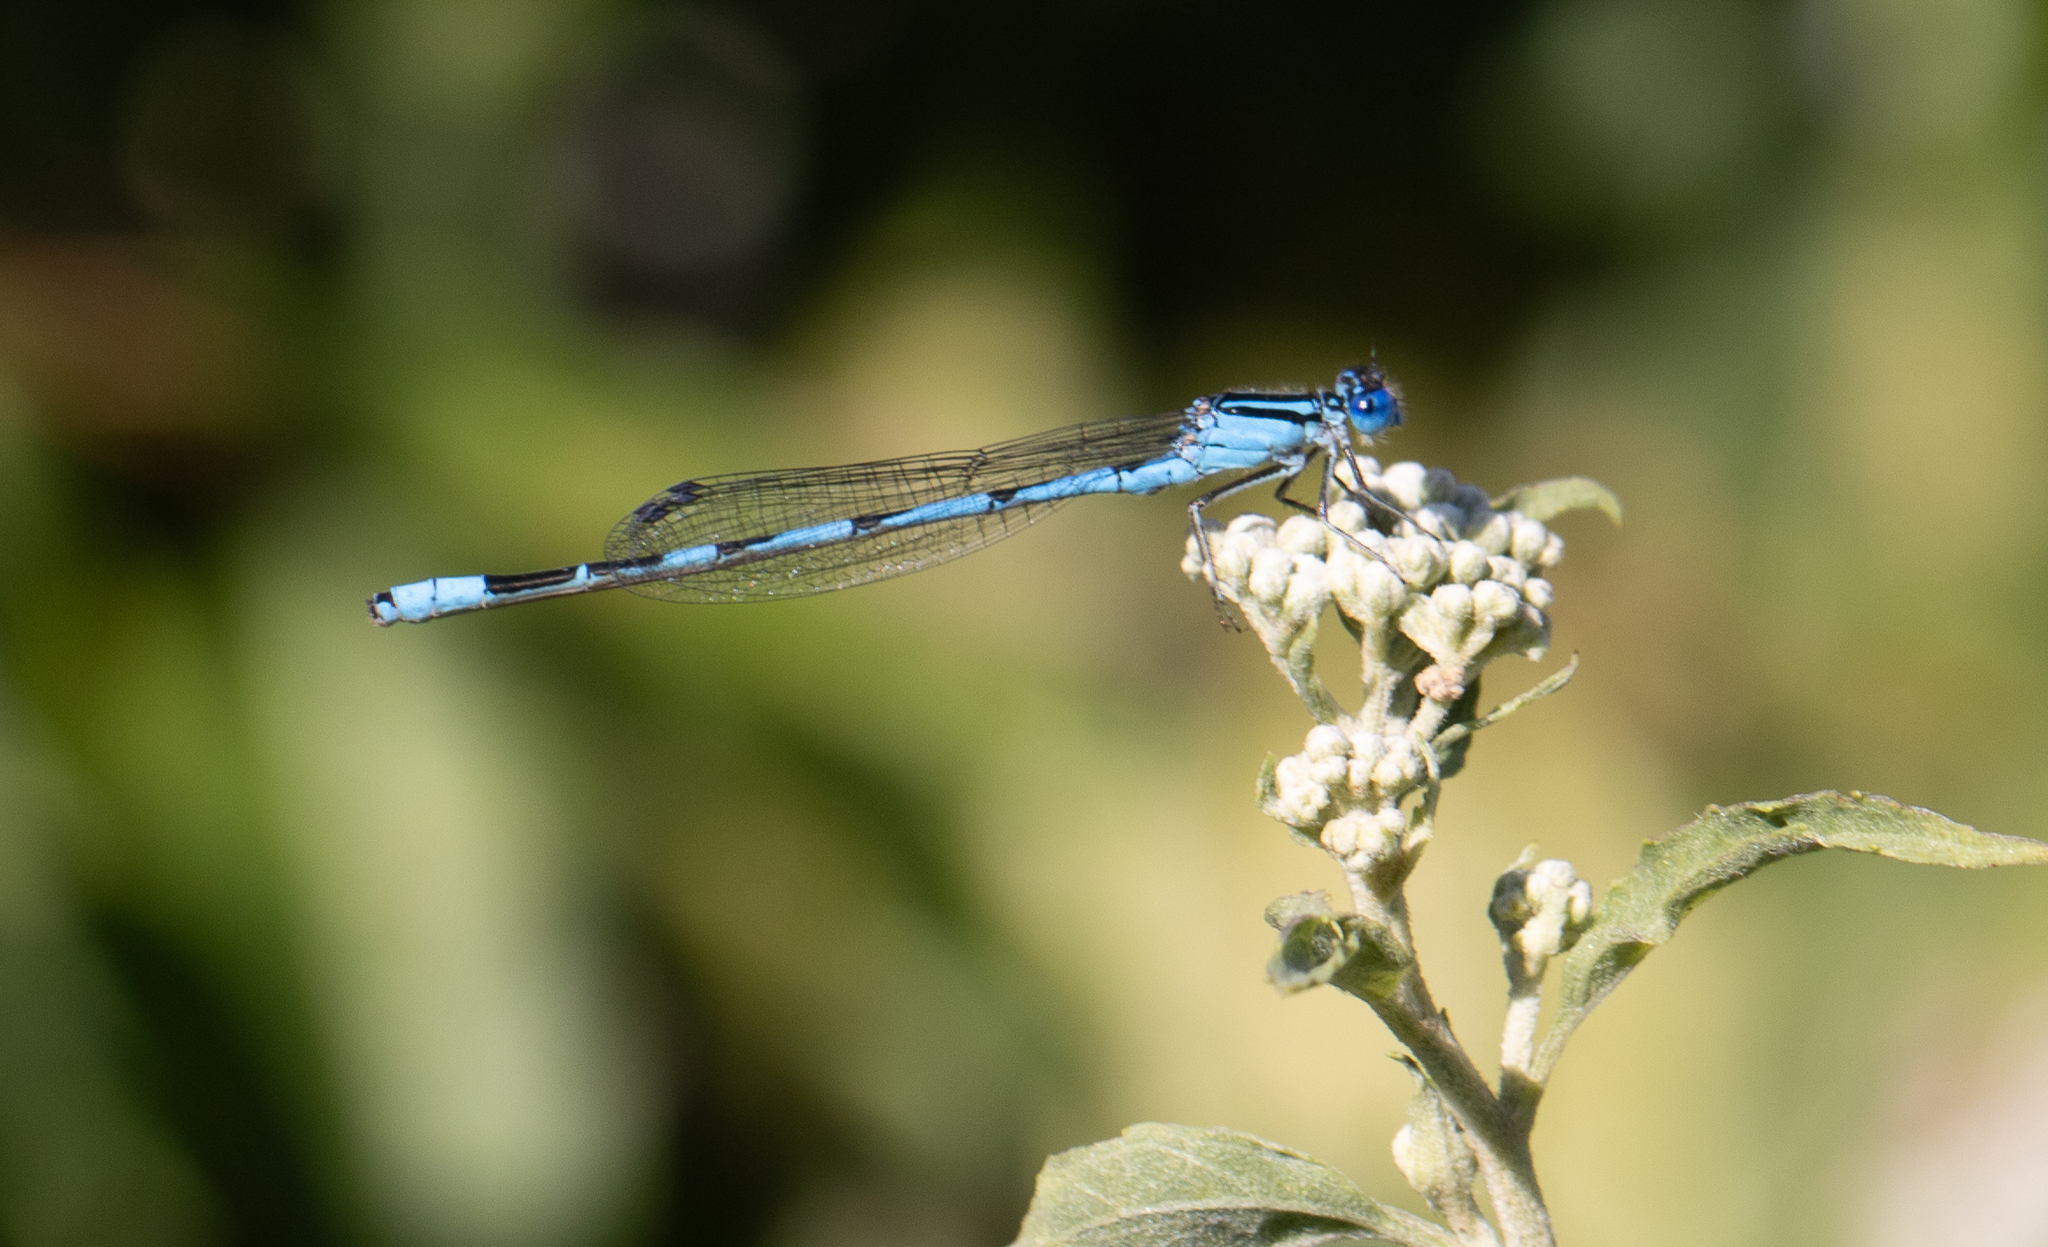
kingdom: Animalia
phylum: Arthropoda
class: Insecta
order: Odonata
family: Coenagrionidae
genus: Enallagma
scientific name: Enallagma durum
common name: Big bluet
